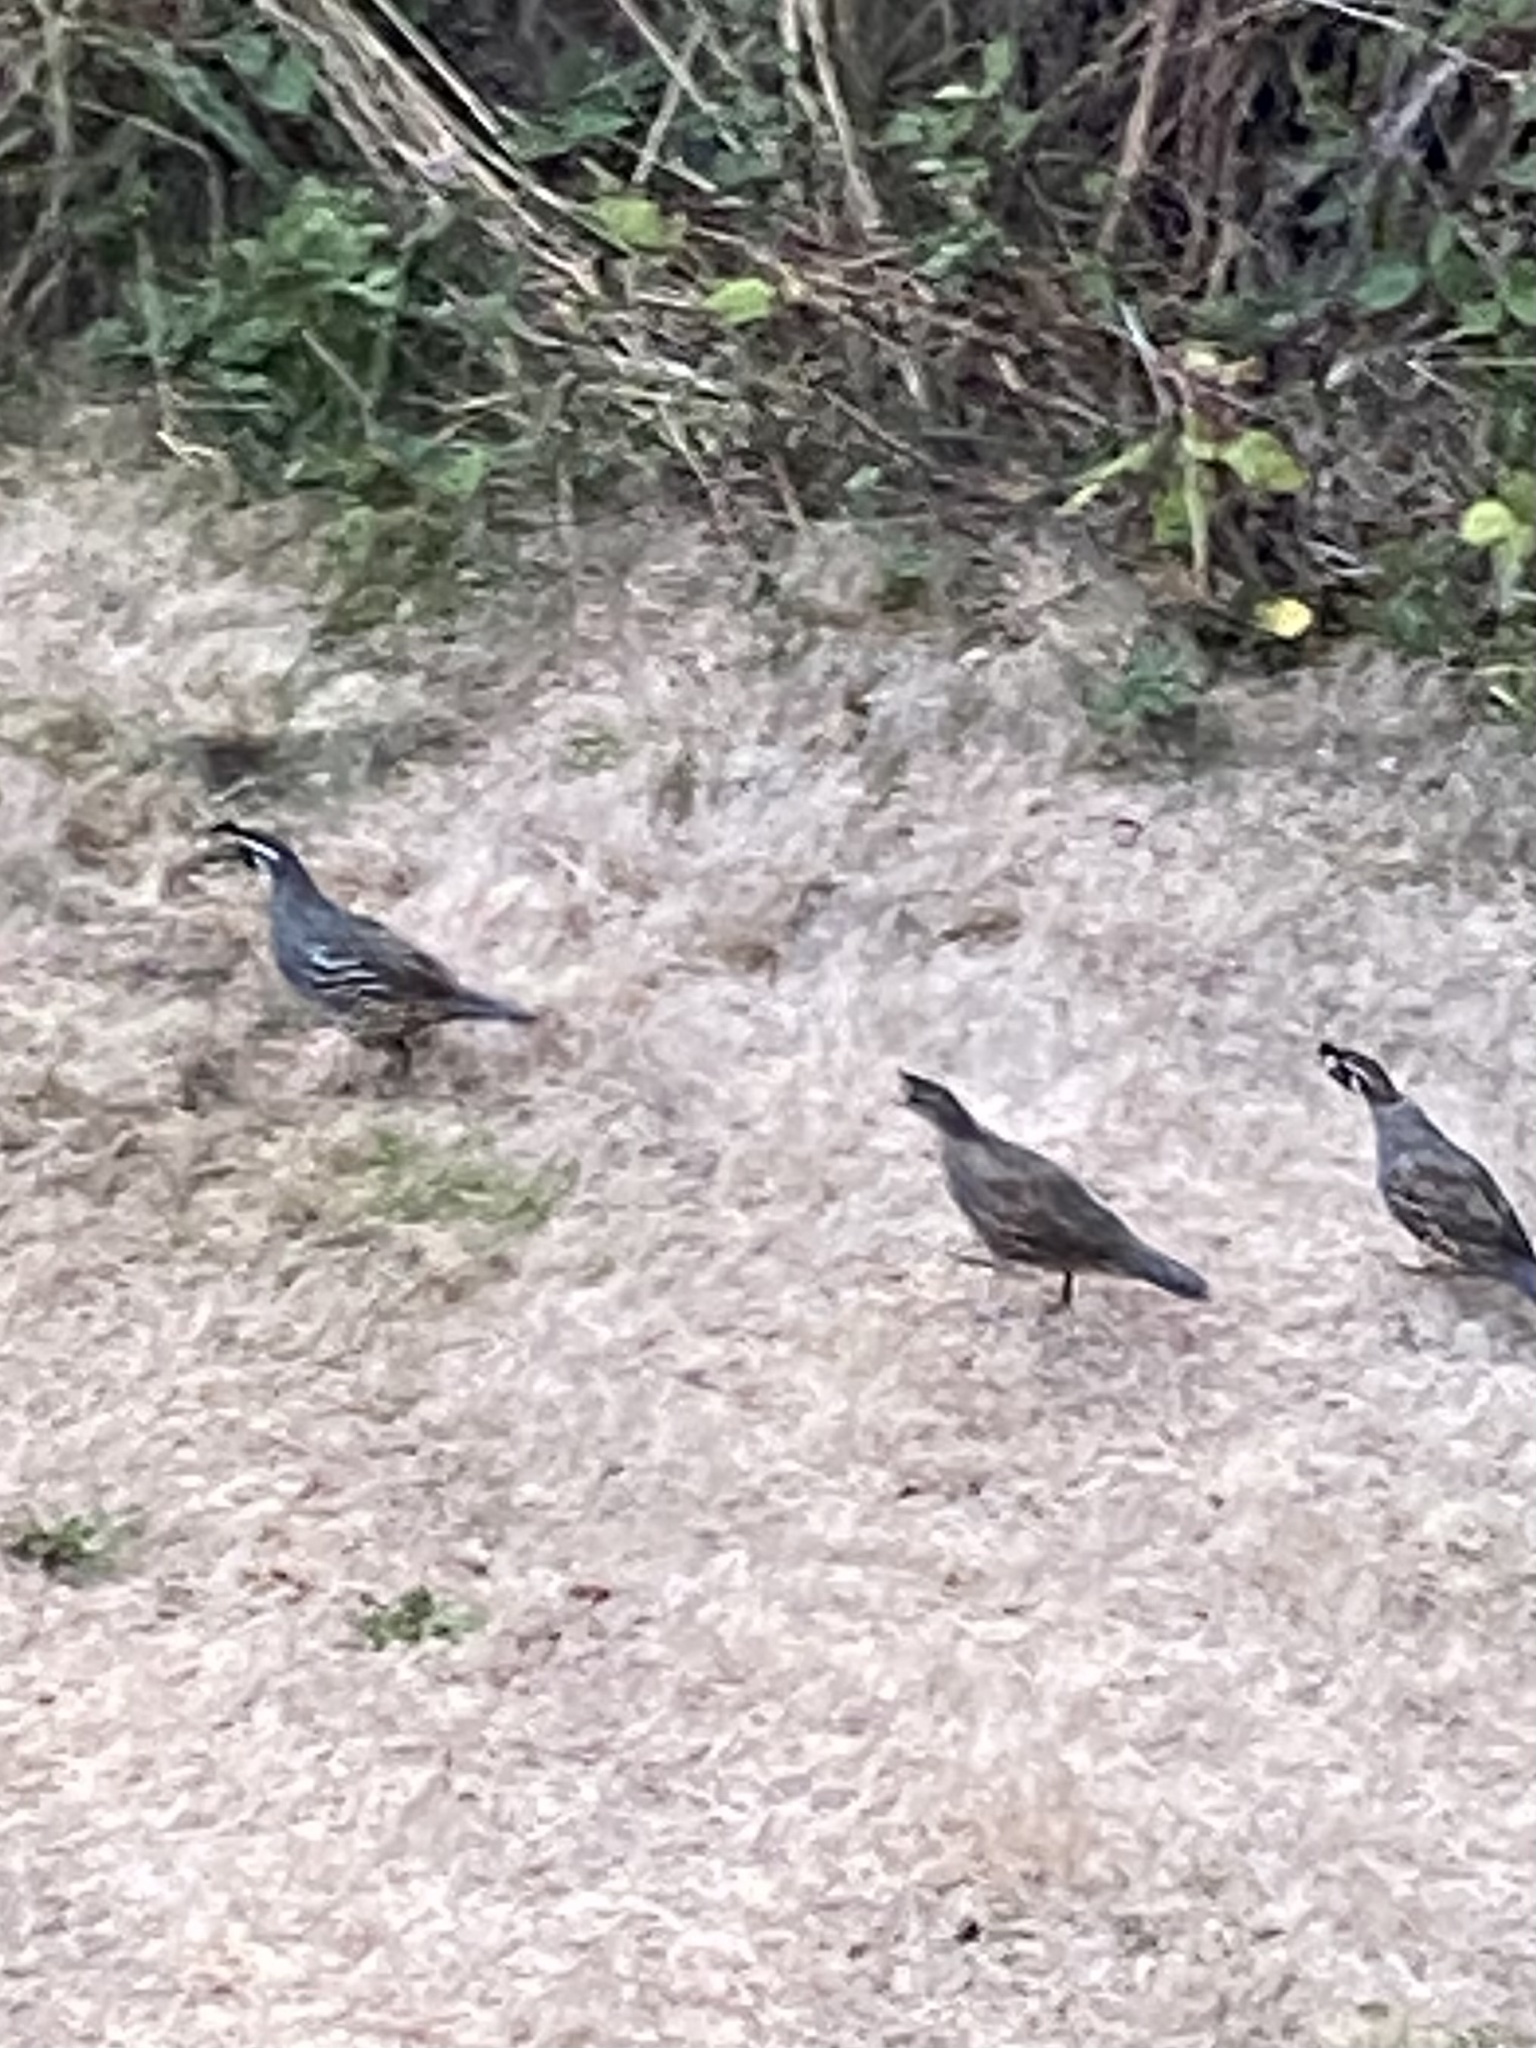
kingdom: Animalia
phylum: Chordata
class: Aves
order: Galliformes
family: Odontophoridae
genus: Callipepla
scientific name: Callipepla californica
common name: California quail
